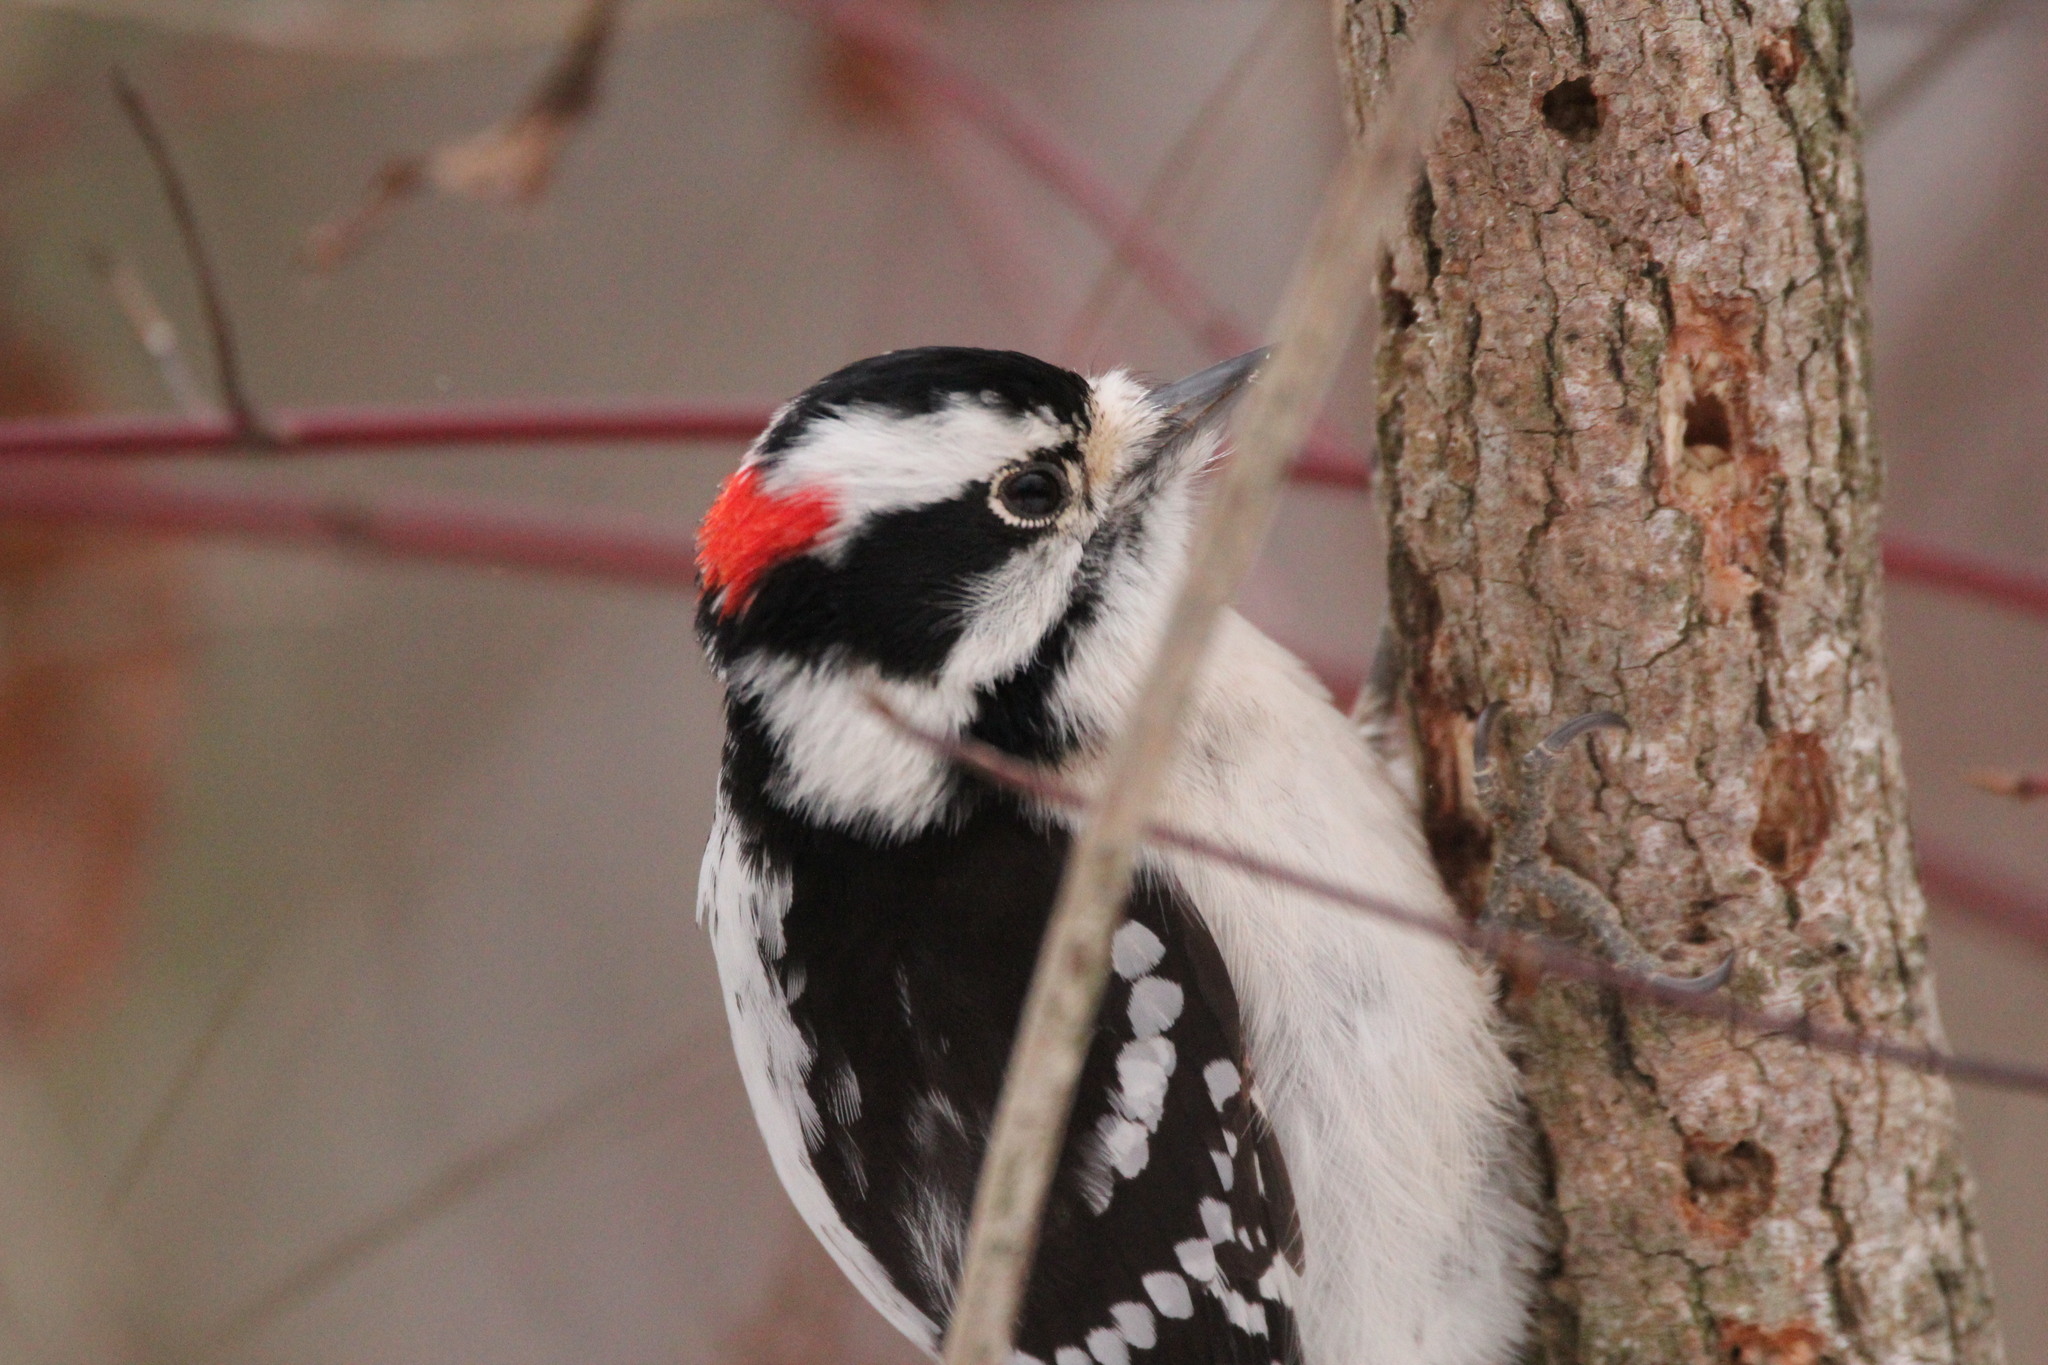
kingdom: Animalia
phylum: Chordata
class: Aves
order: Piciformes
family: Picidae
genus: Dryobates
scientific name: Dryobates pubescens
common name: Downy woodpecker
